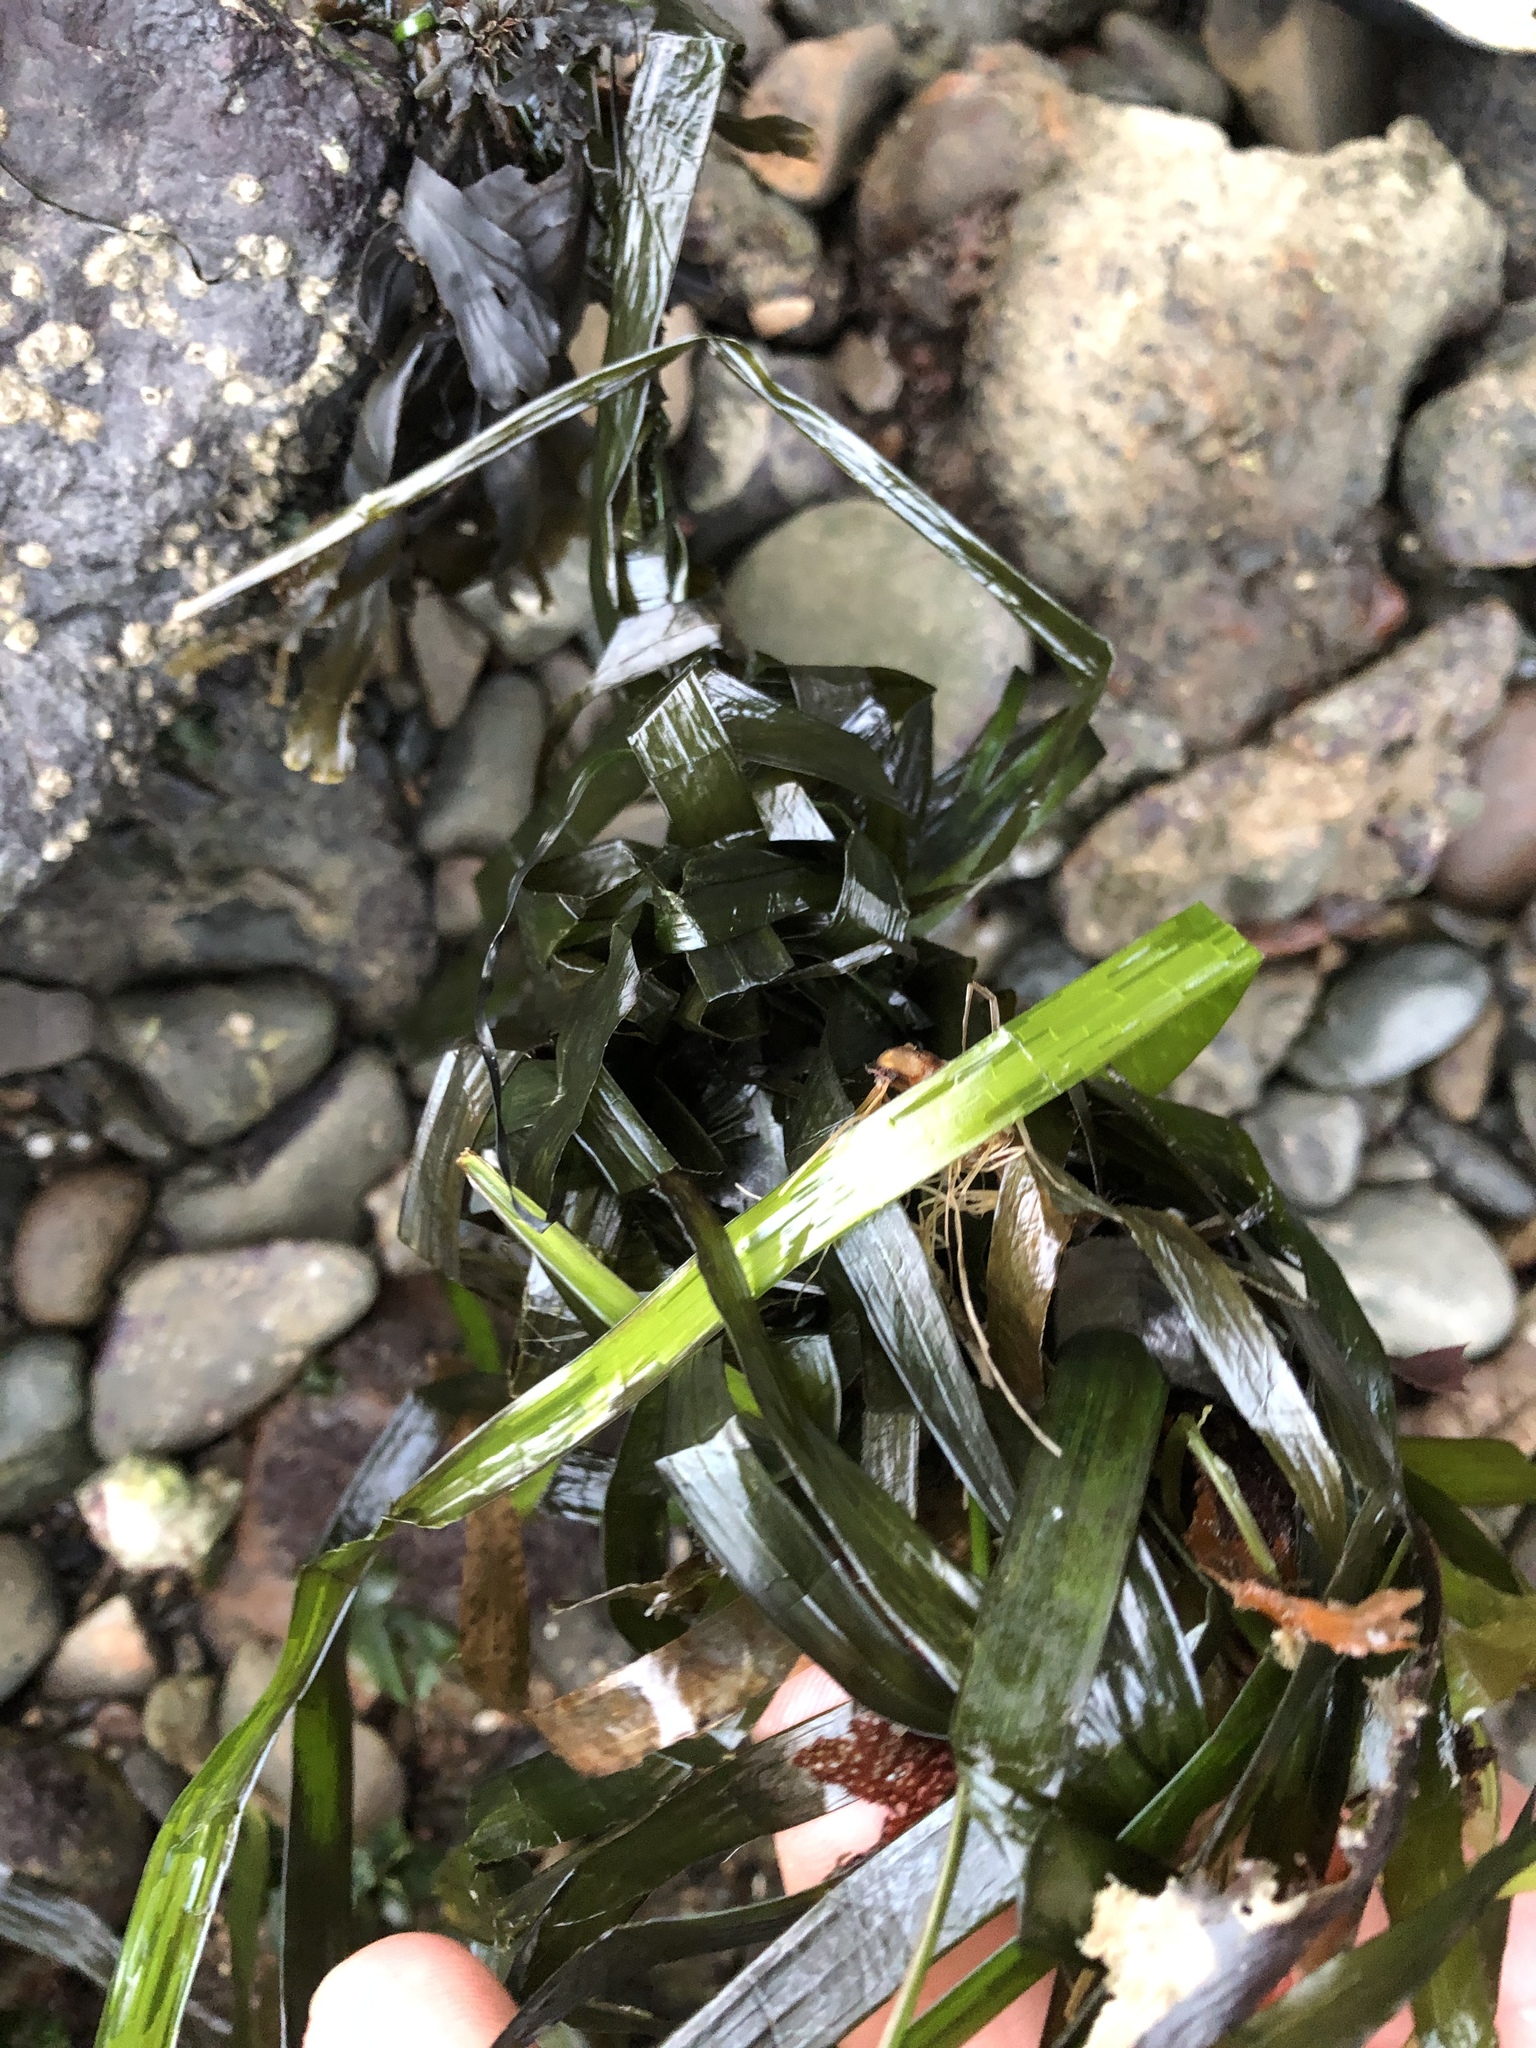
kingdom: Plantae
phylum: Tracheophyta
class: Liliopsida
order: Alismatales
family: Zosteraceae
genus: Zostera
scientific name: Zostera marina
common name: Eelgrass
